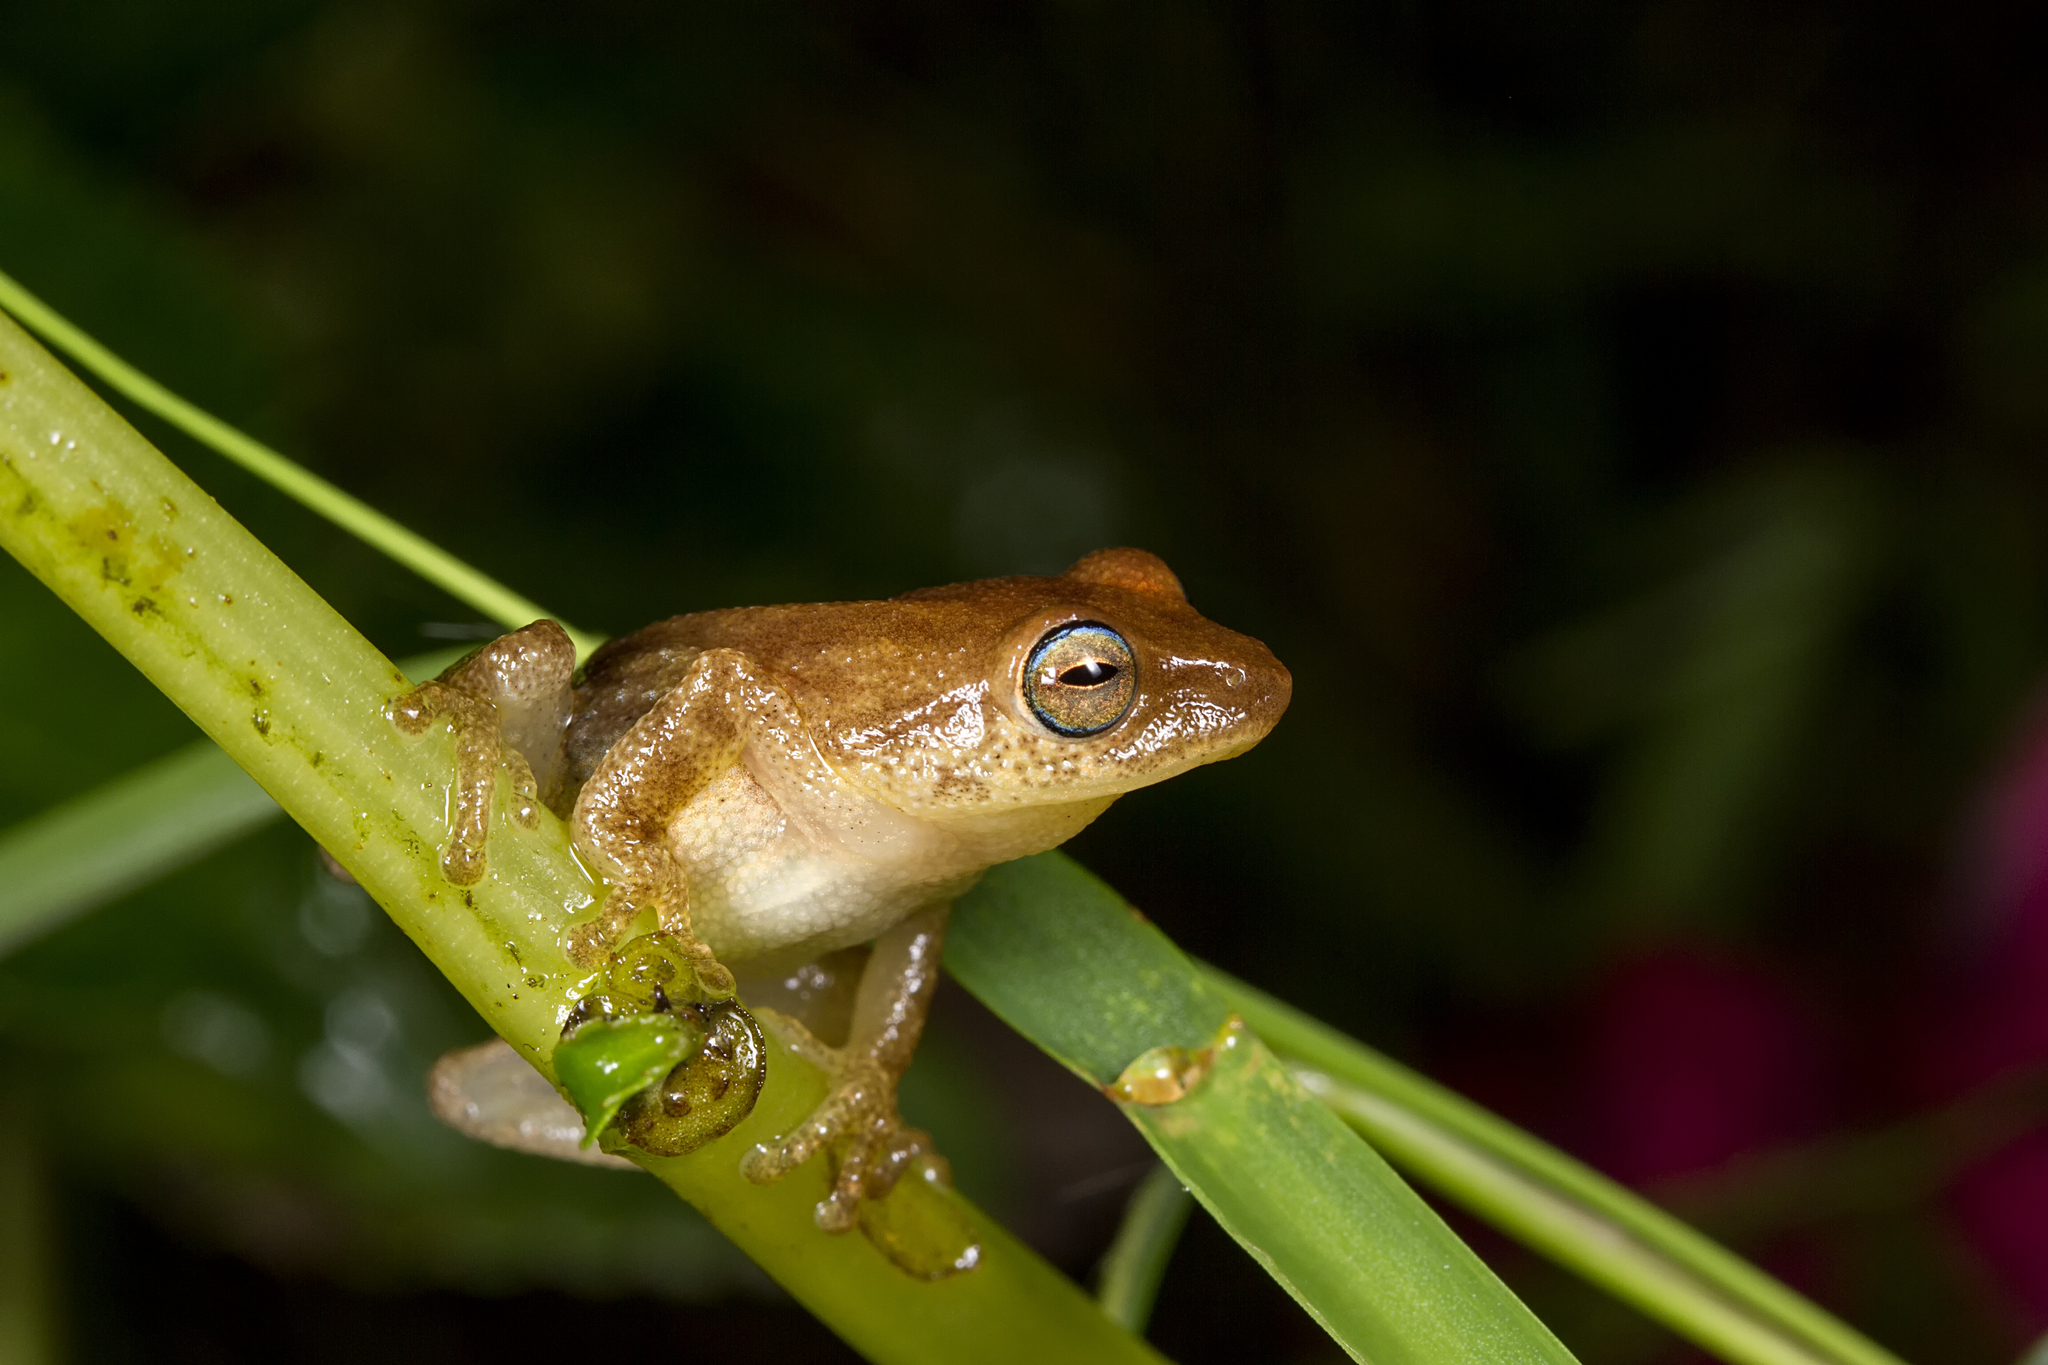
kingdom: Animalia
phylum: Chordata
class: Amphibia
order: Anura
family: Rhacophoridae
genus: Raorchestes
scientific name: Raorchestes luteolus
